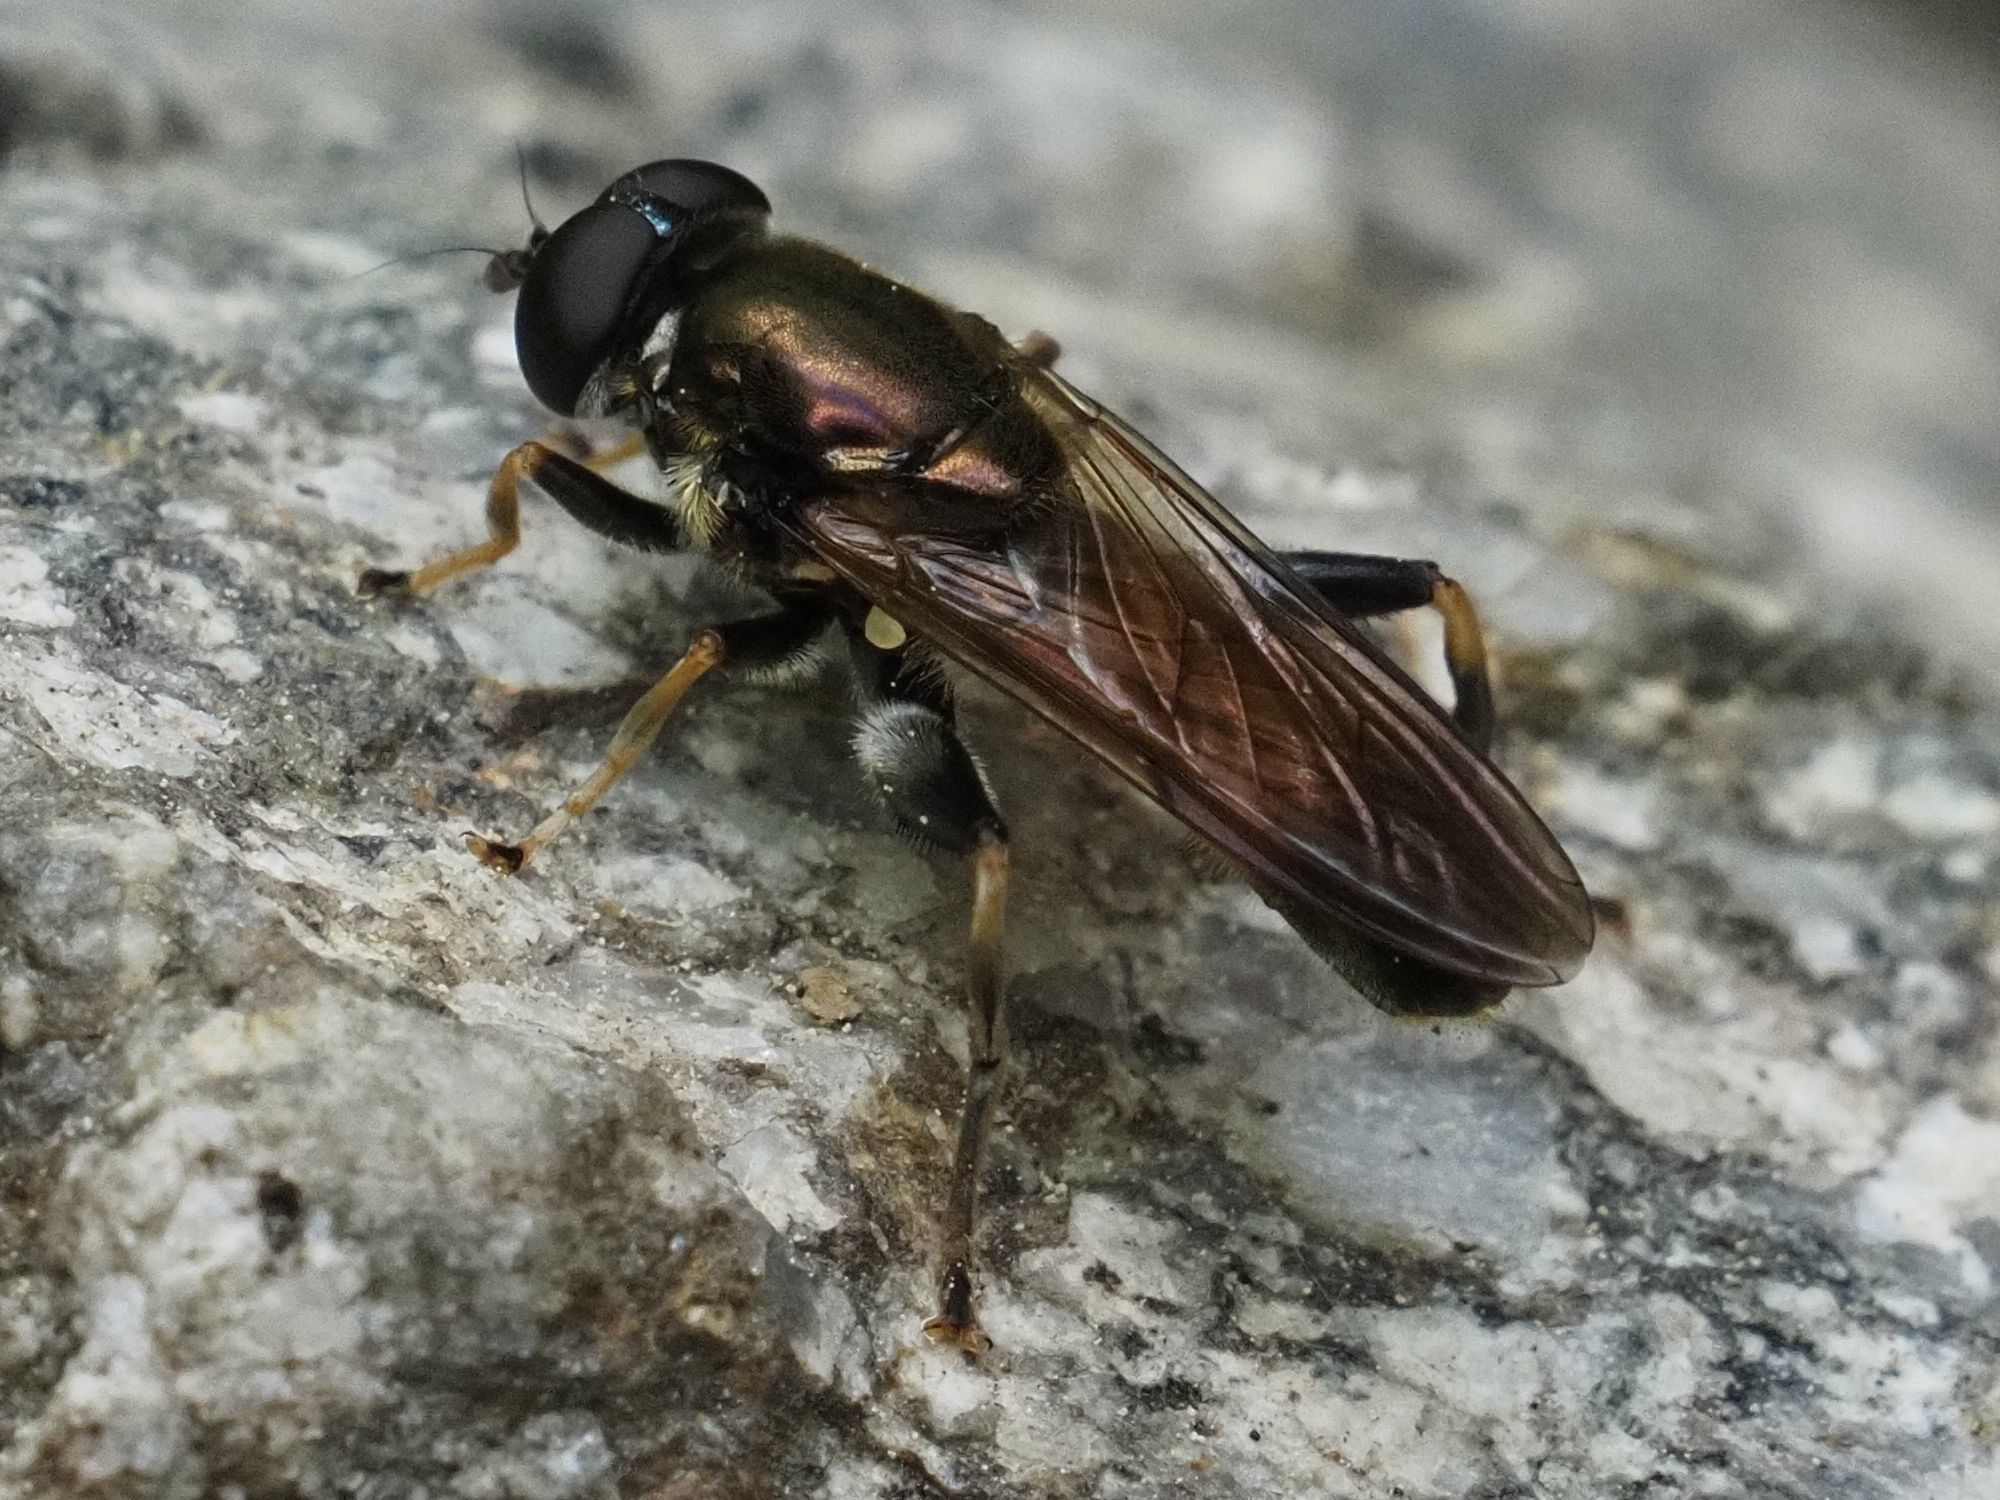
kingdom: Animalia
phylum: Arthropoda
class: Insecta
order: Diptera
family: Syrphidae
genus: Xylota
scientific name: Xylota segnis
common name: Brown-toed forest fly
